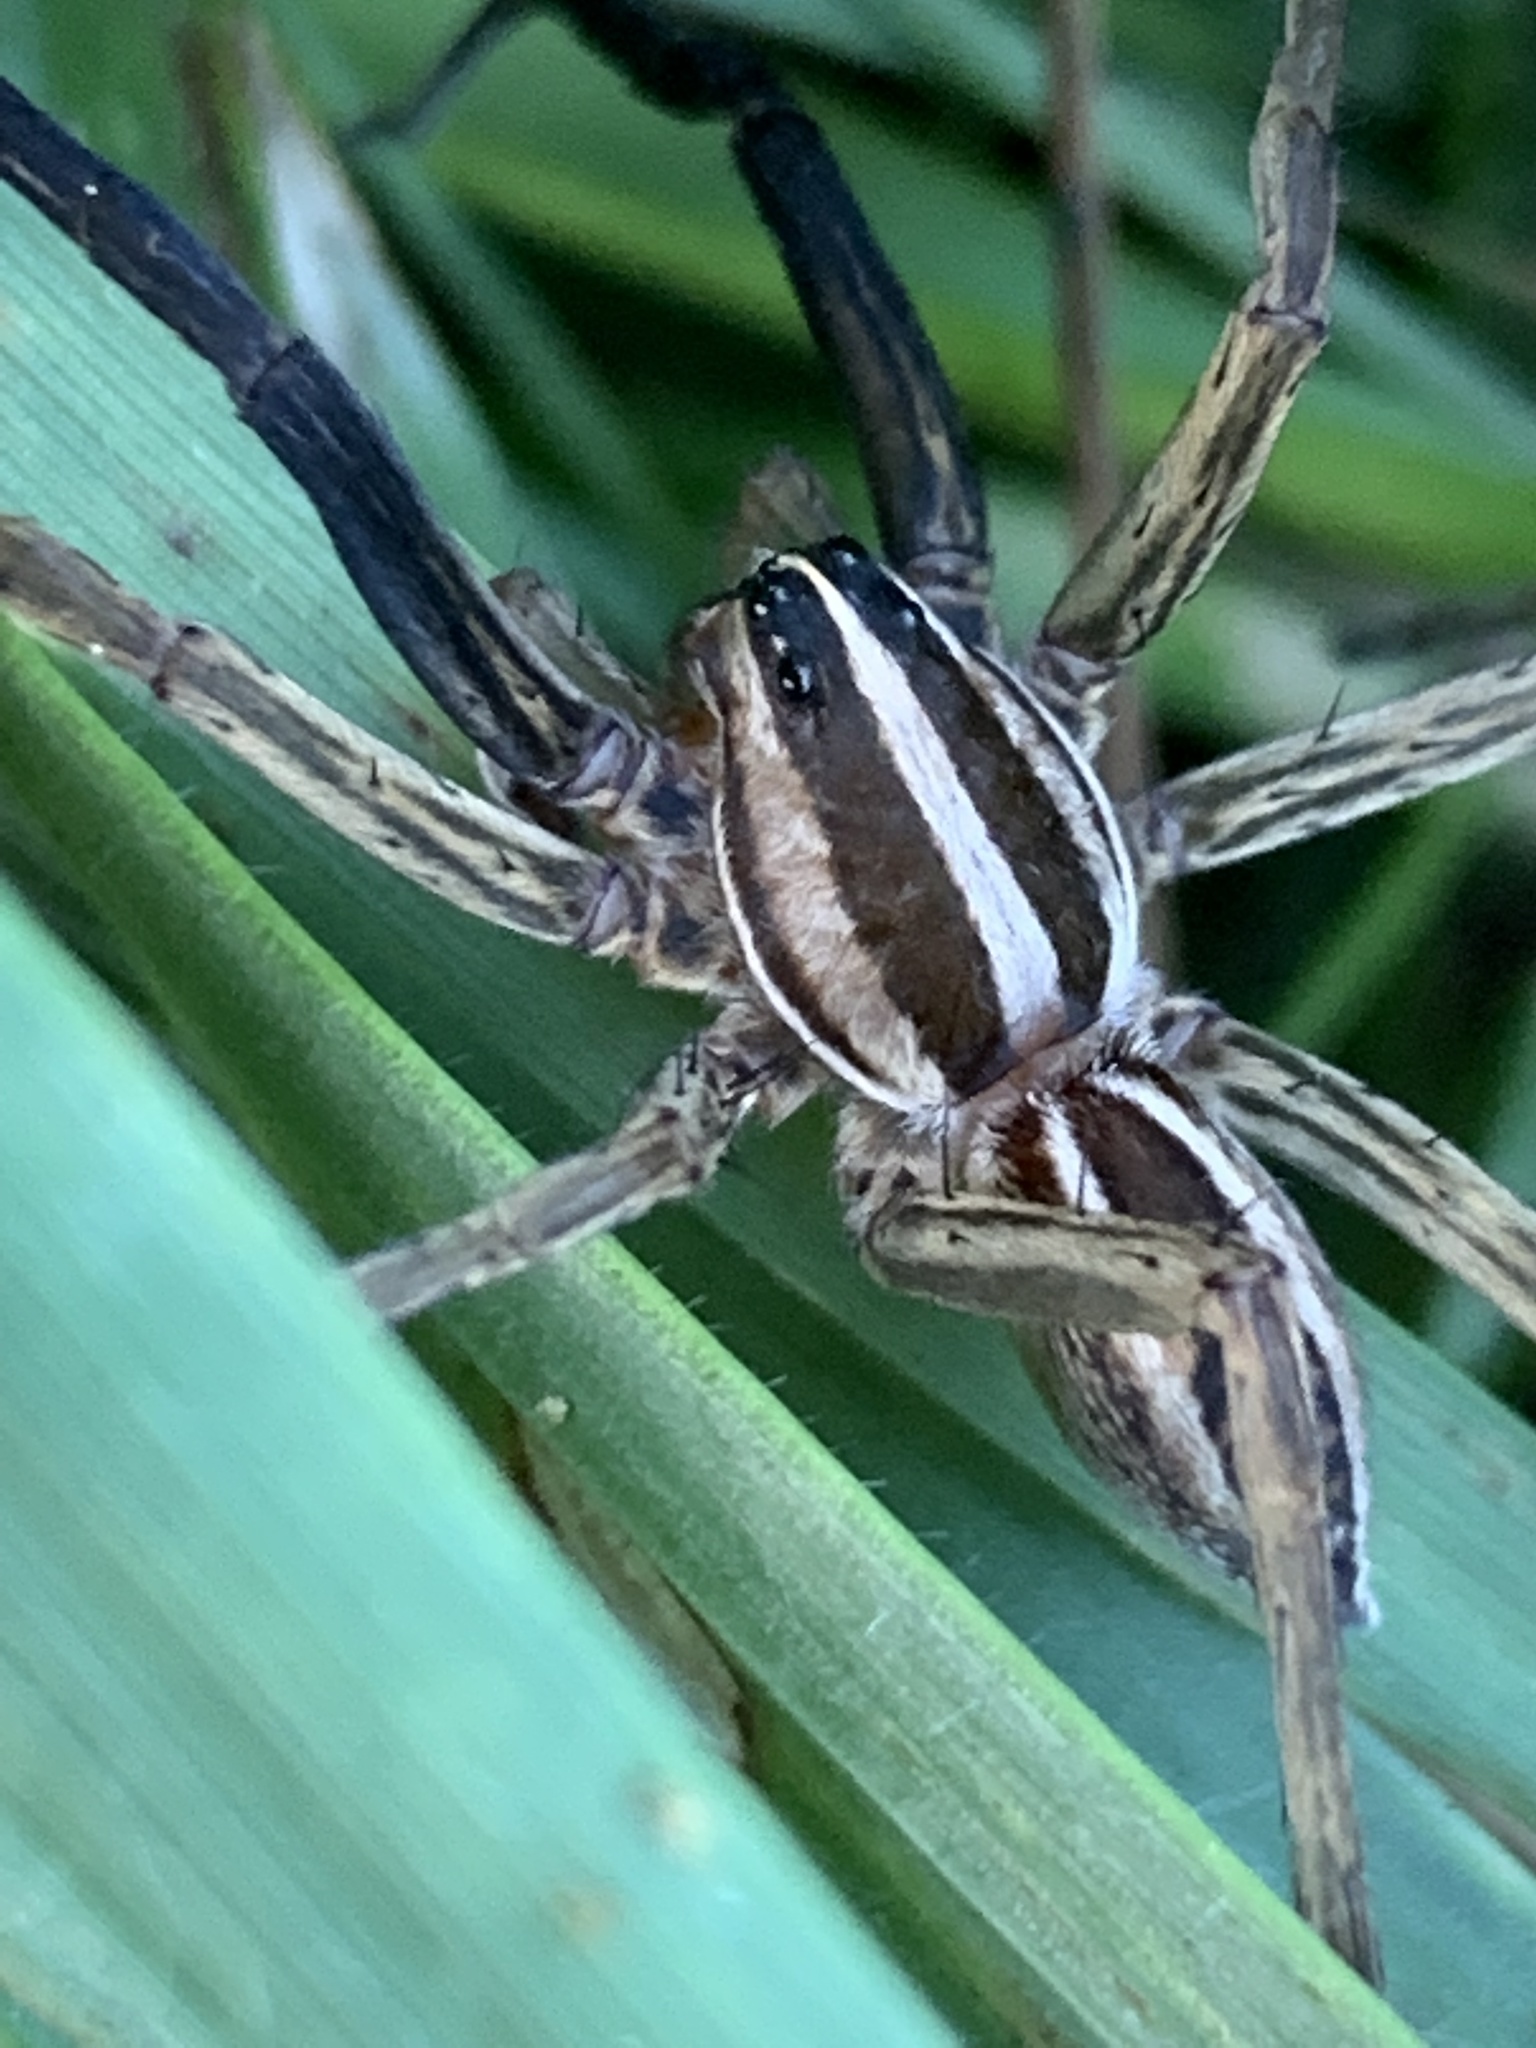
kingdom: Animalia
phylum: Arthropoda
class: Arachnida
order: Araneae
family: Lycosidae
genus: Rabidosa
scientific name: Rabidosa rabida
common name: Rabid wolf spider
